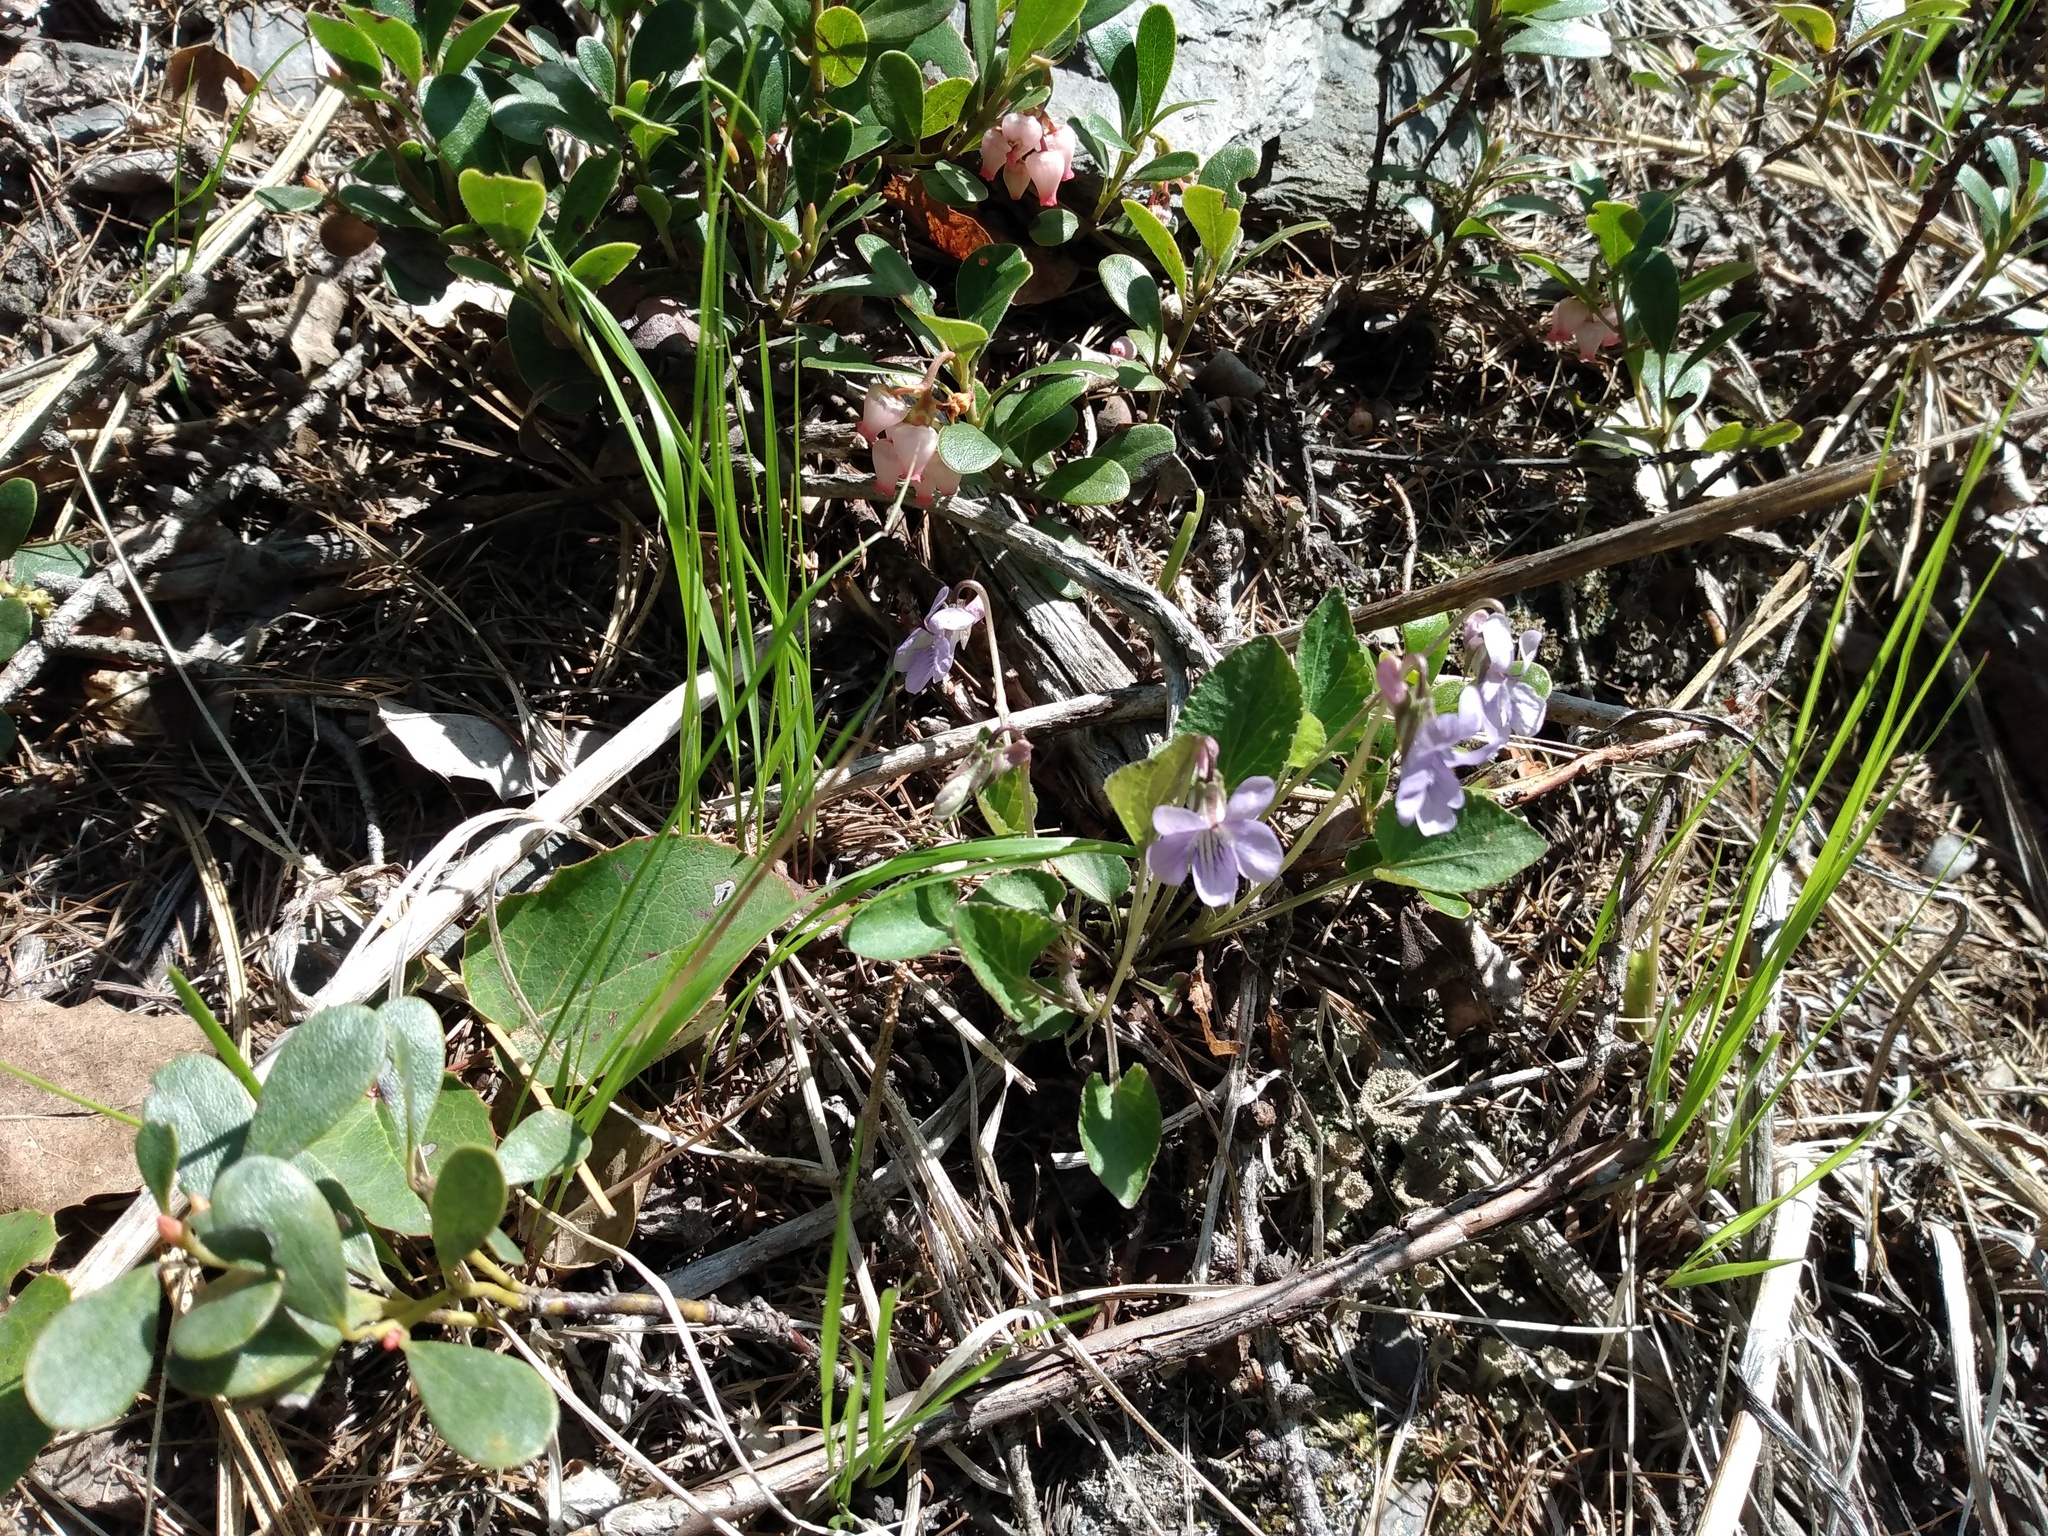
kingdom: Plantae
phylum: Tracheophyta
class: Magnoliopsida
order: Malpighiales
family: Violaceae
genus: Viola
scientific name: Viola adunca
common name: Sand violet
